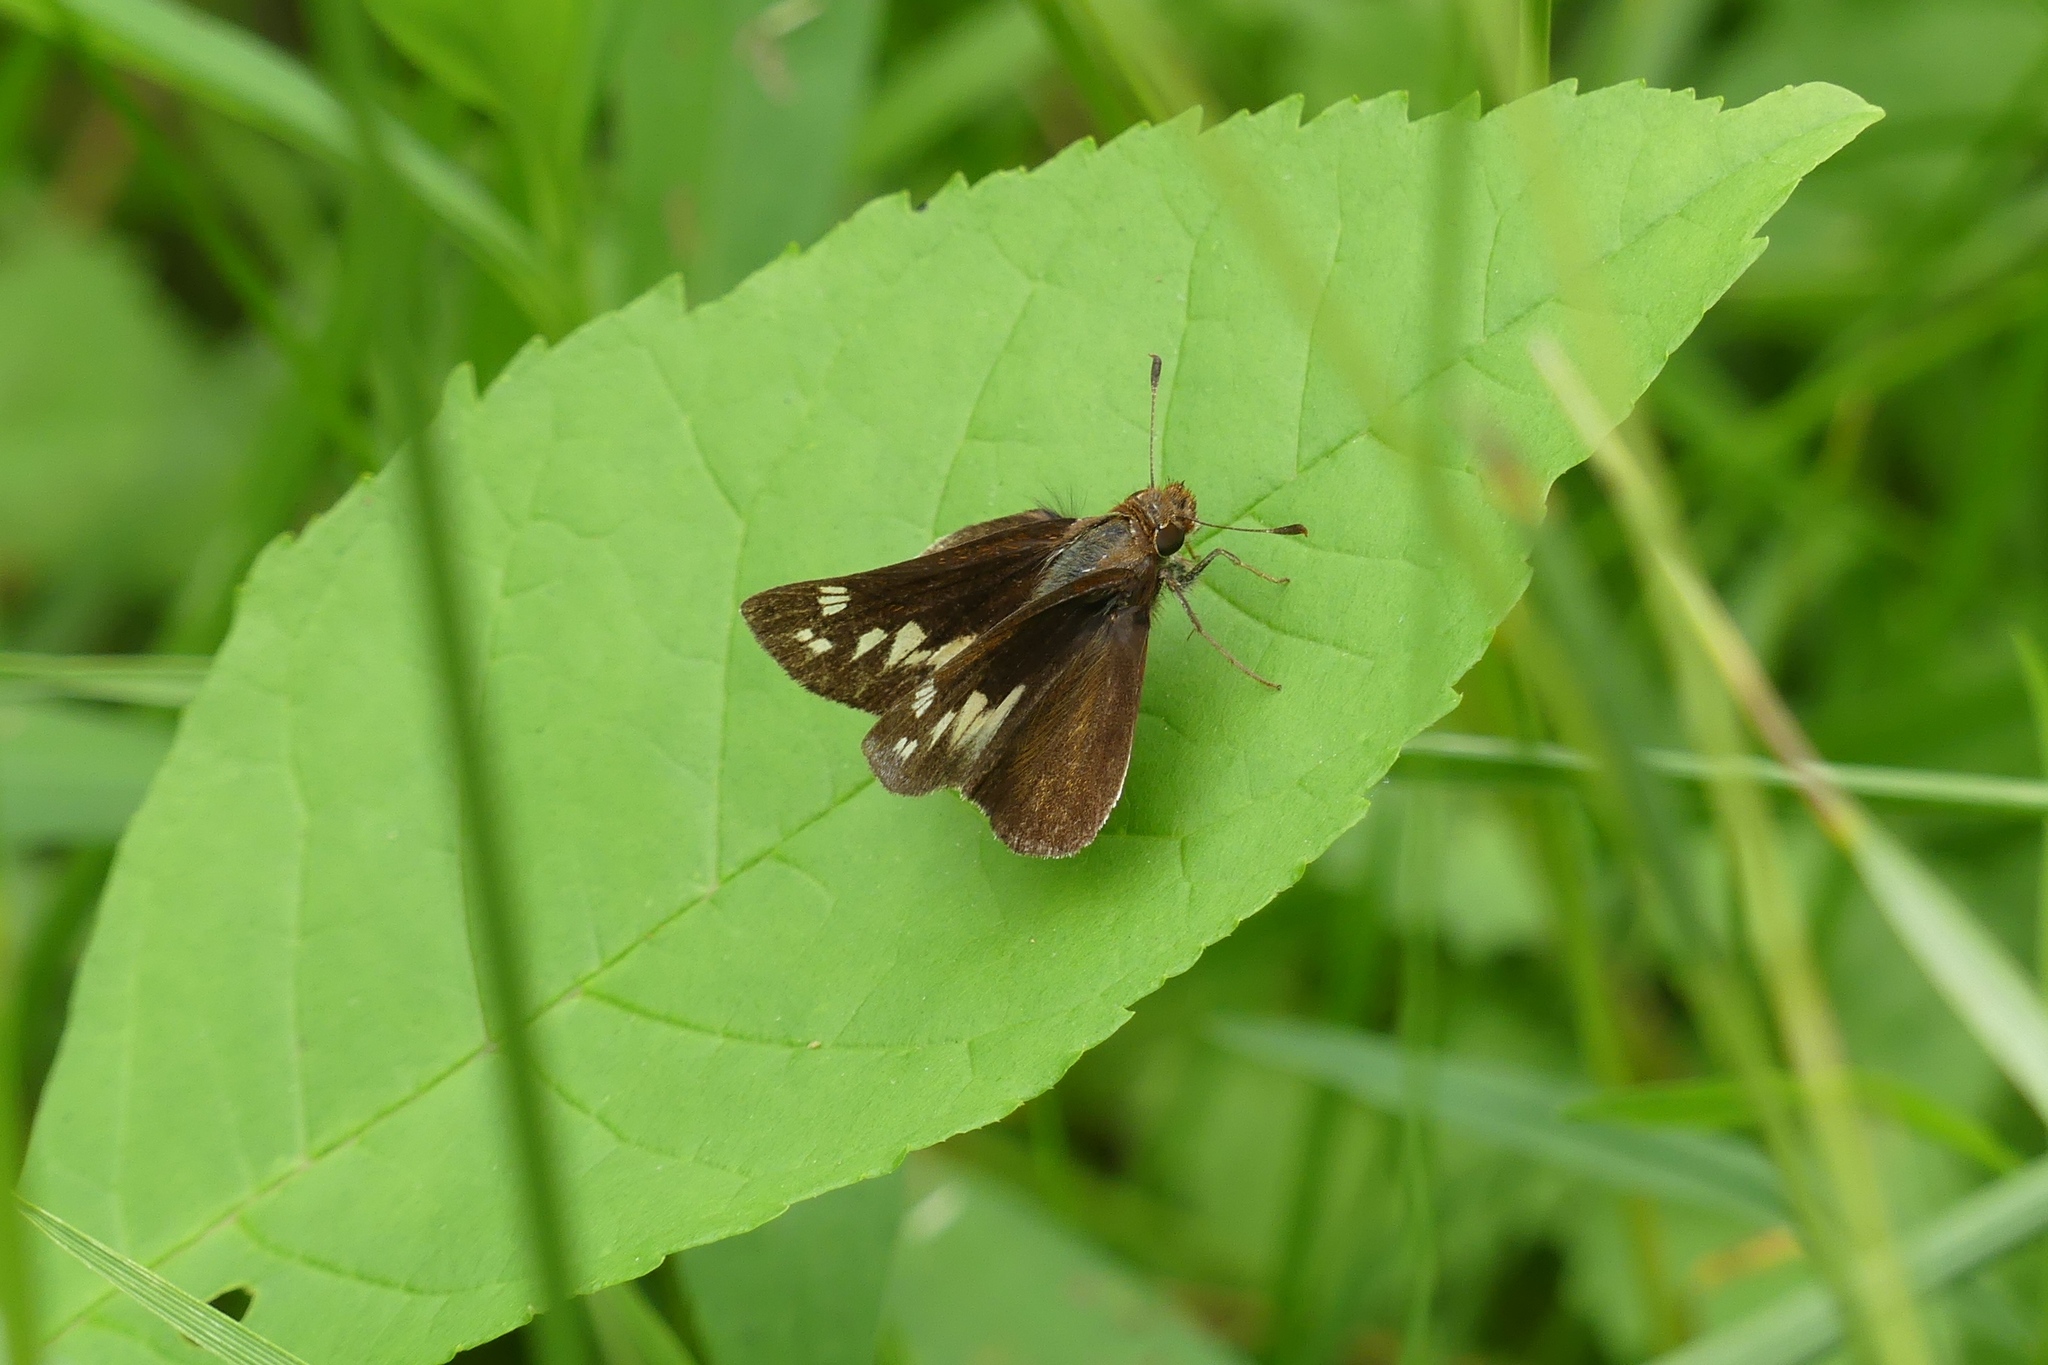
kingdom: Animalia
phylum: Arthropoda
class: Insecta
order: Lepidoptera
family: Hesperiidae
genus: Lon
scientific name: Lon zabulon
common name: Zabulon skipper
